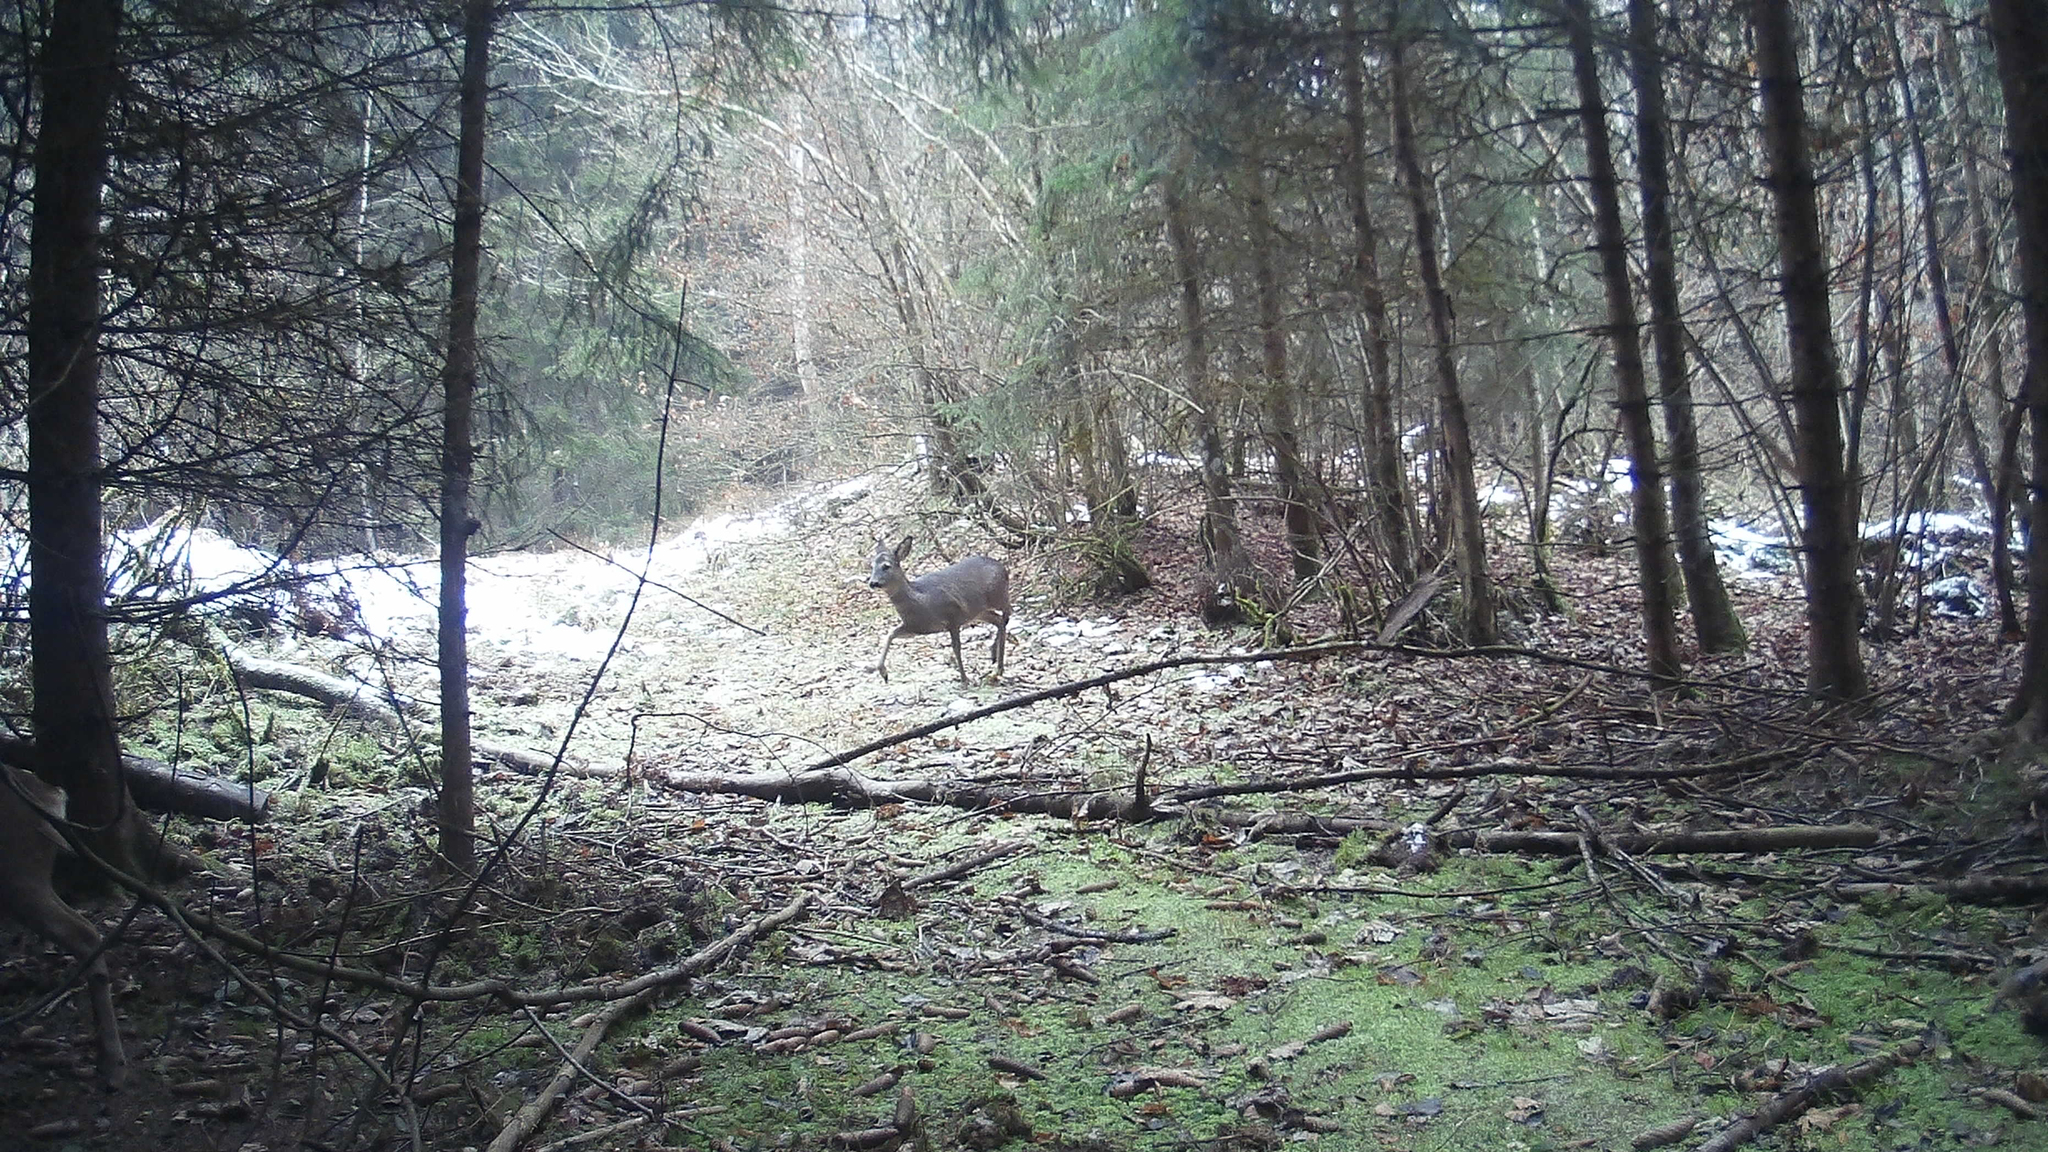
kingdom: Animalia
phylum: Chordata
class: Mammalia
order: Artiodactyla
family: Cervidae
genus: Capreolus
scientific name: Capreolus capreolus
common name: Western roe deer
